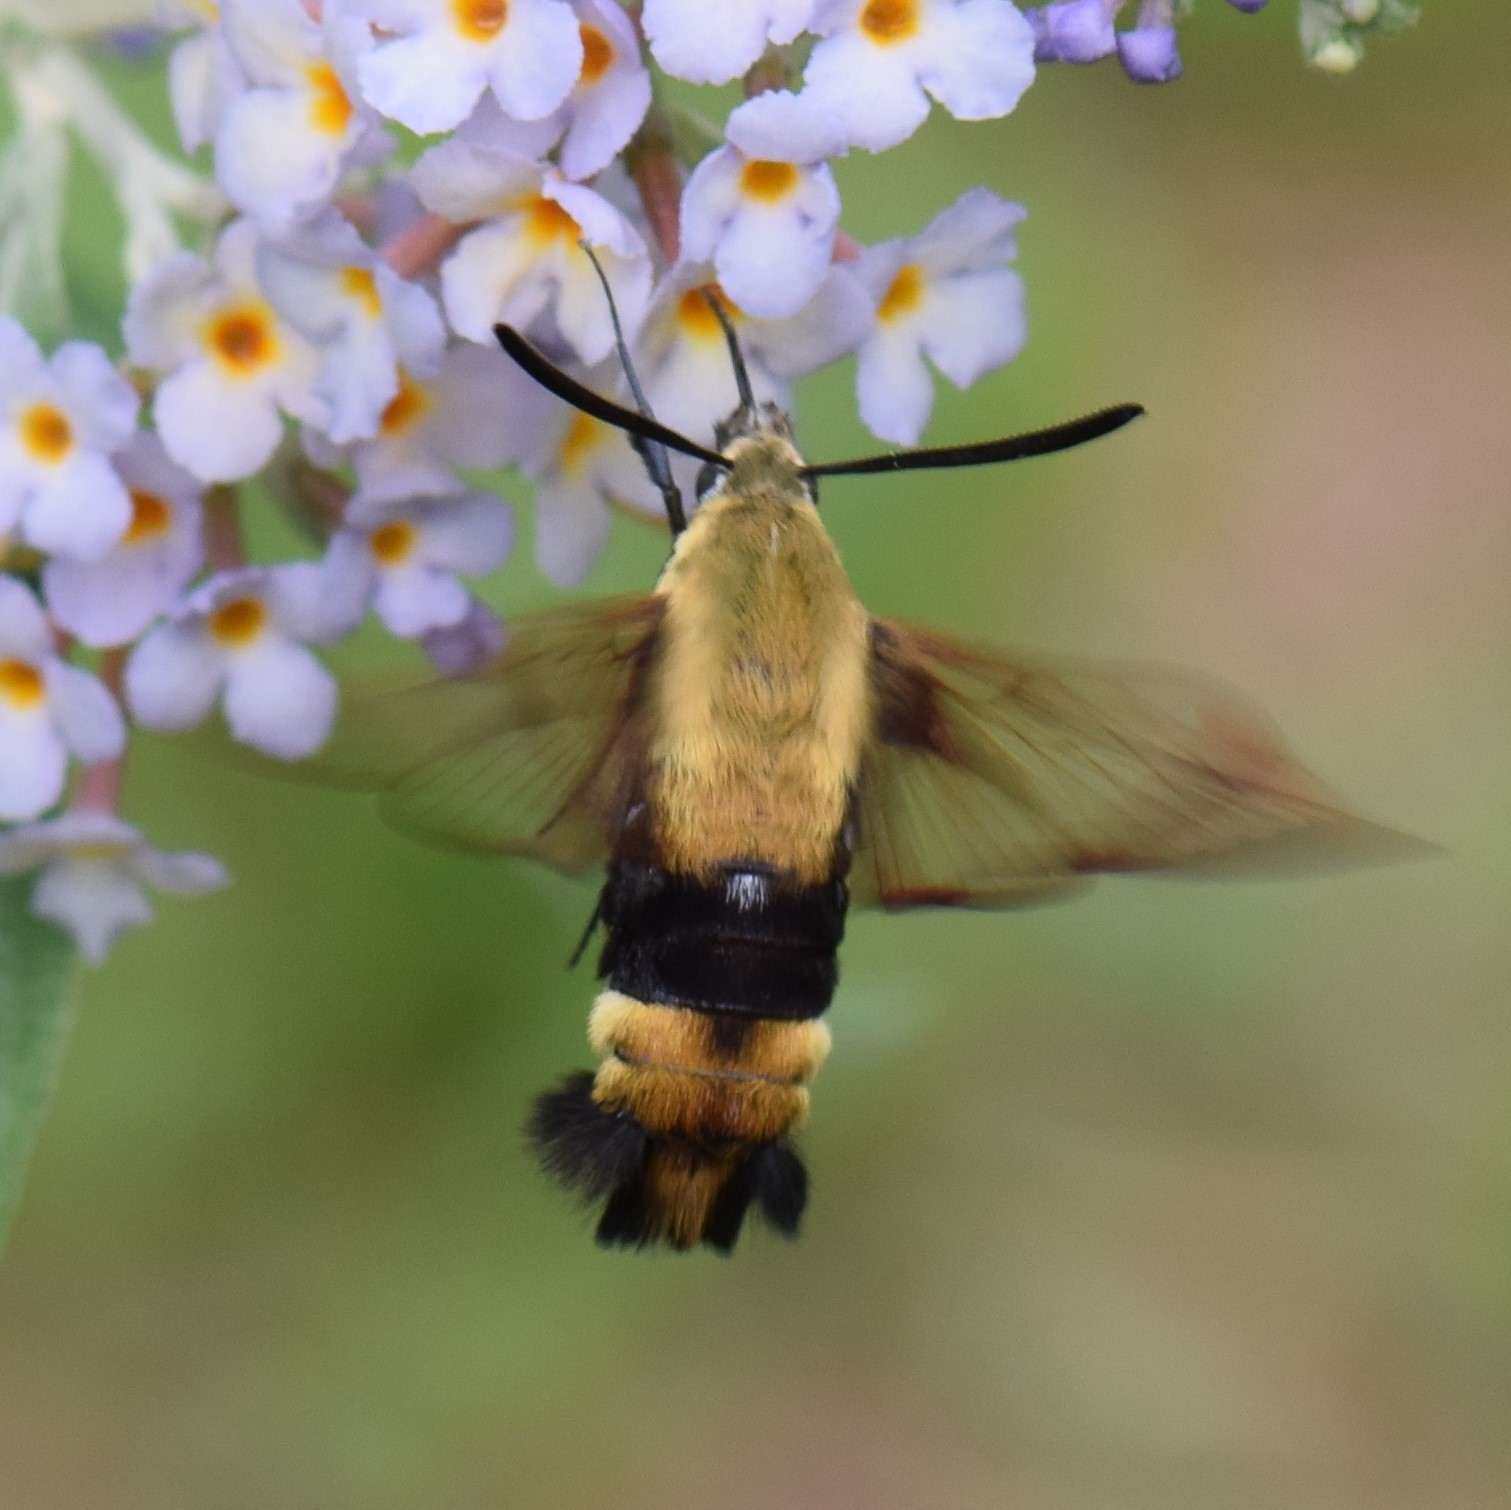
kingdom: Animalia
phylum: Arthropoda
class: Insecta
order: Lepidoptera
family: Sphingidae
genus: Hemaris
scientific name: Hemaris diffinis
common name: Bumblebee moth
